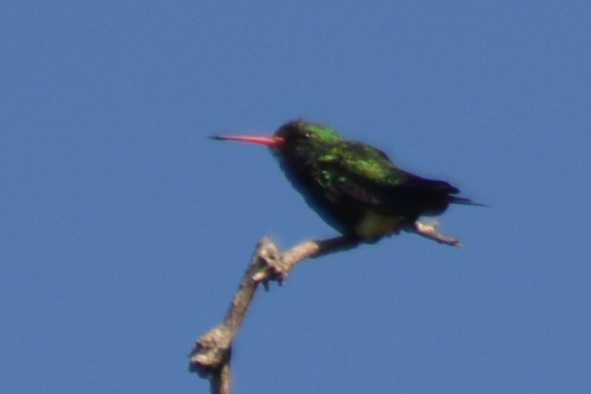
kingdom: Animalia
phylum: Chordata
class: Aves
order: Apodiformes
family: Trochilidae
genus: Chlorostilbon
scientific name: Chlorostilbon lucidus
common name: Glittering-bellied emerald
